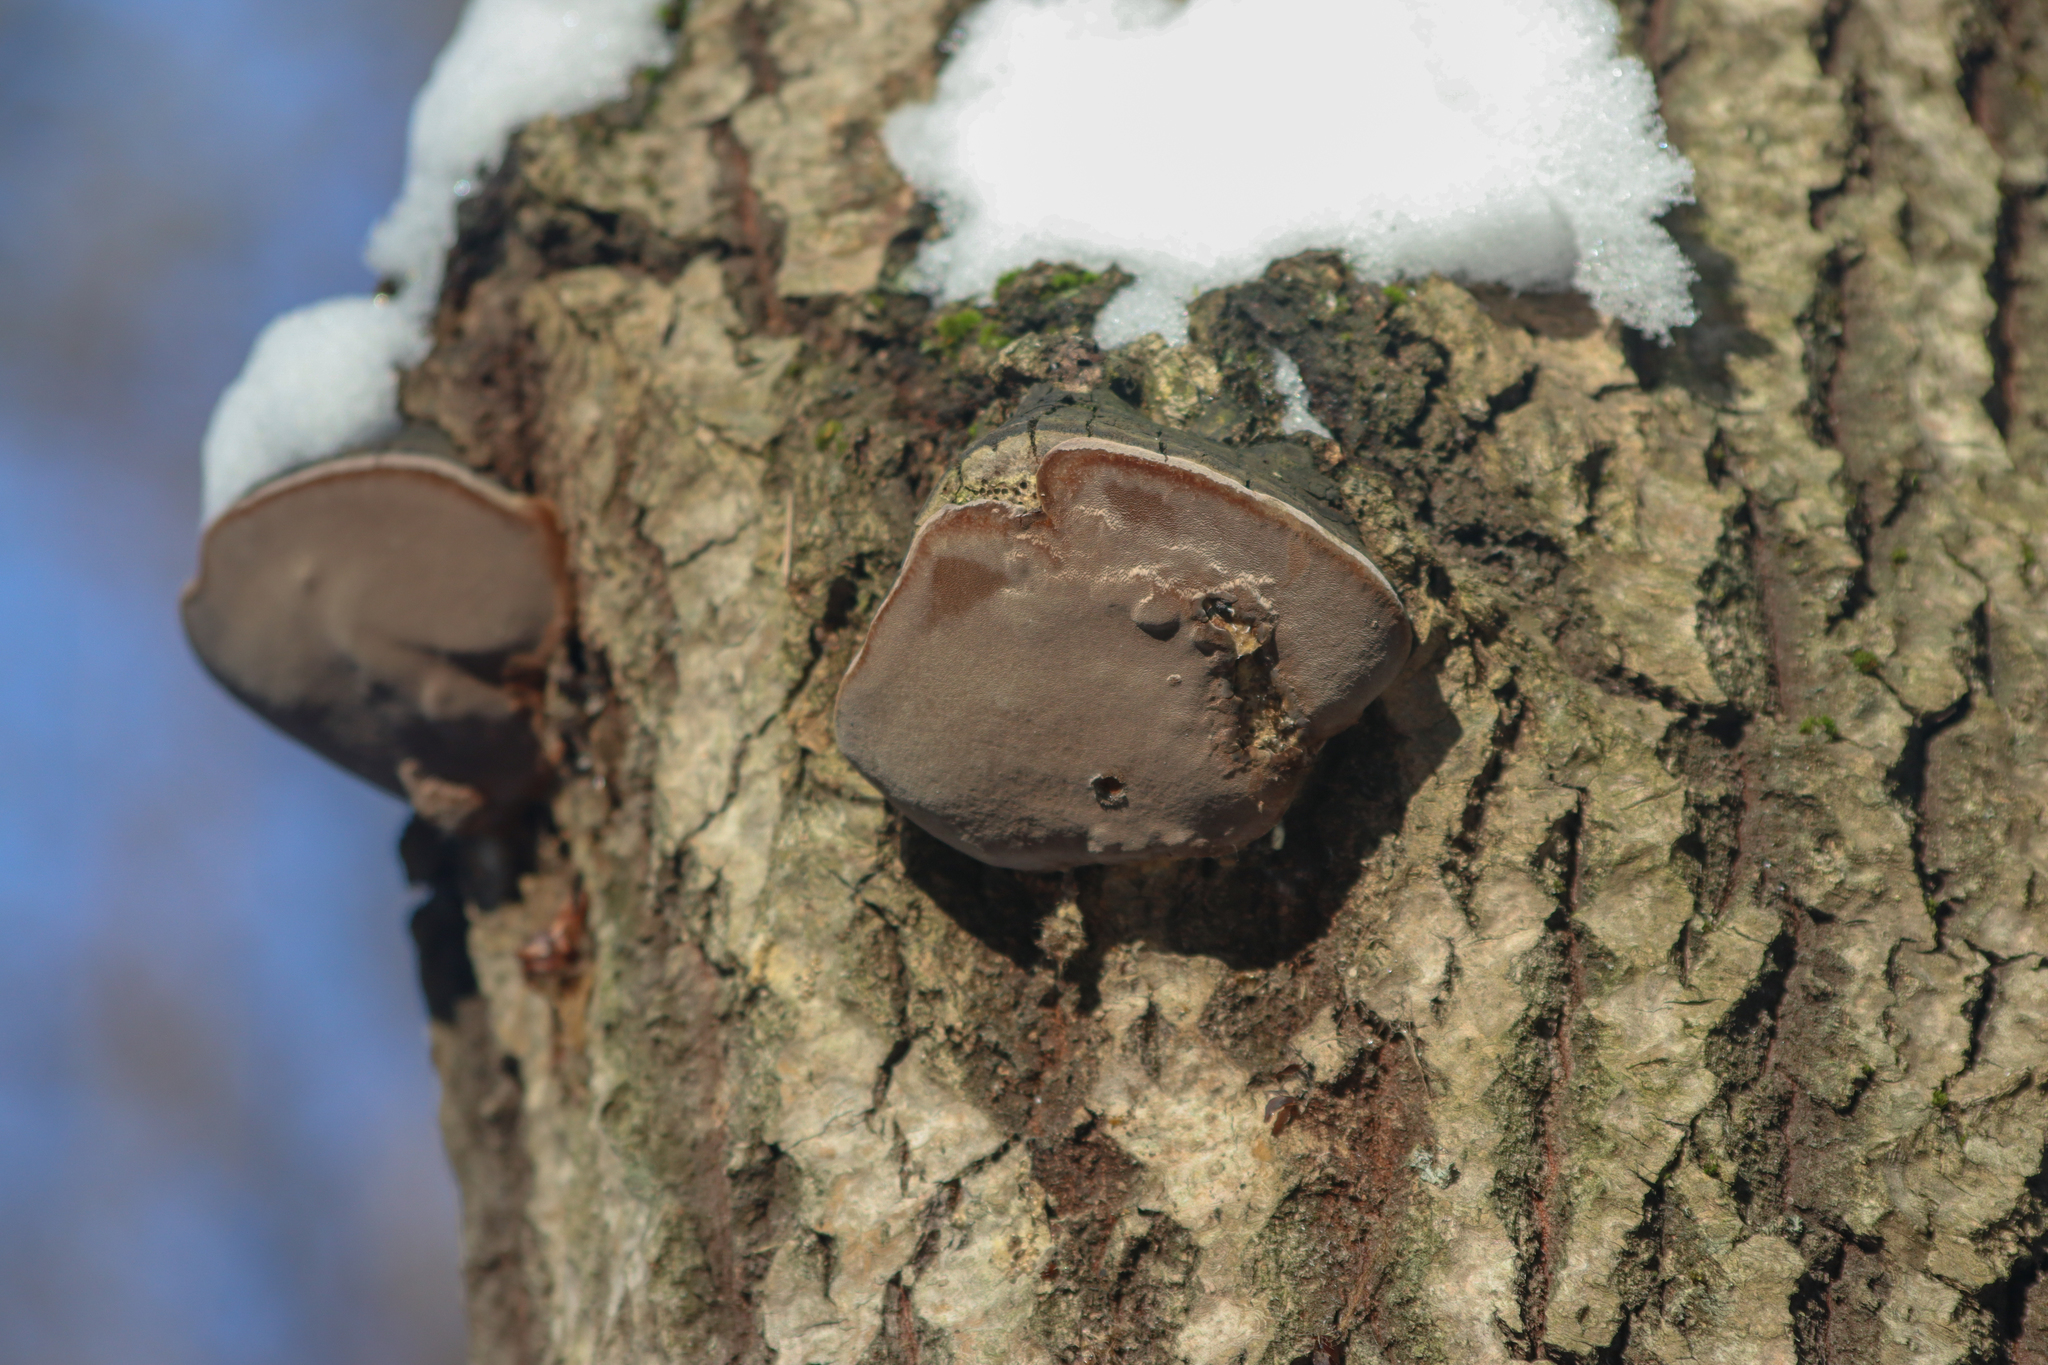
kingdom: Fungi
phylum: Basidiomycota
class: Agaricomycetes
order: Hymenochaetales
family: Hymenochaetaceae
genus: Phellinus
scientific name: Phellinus tremulae
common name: Aspen bracket
